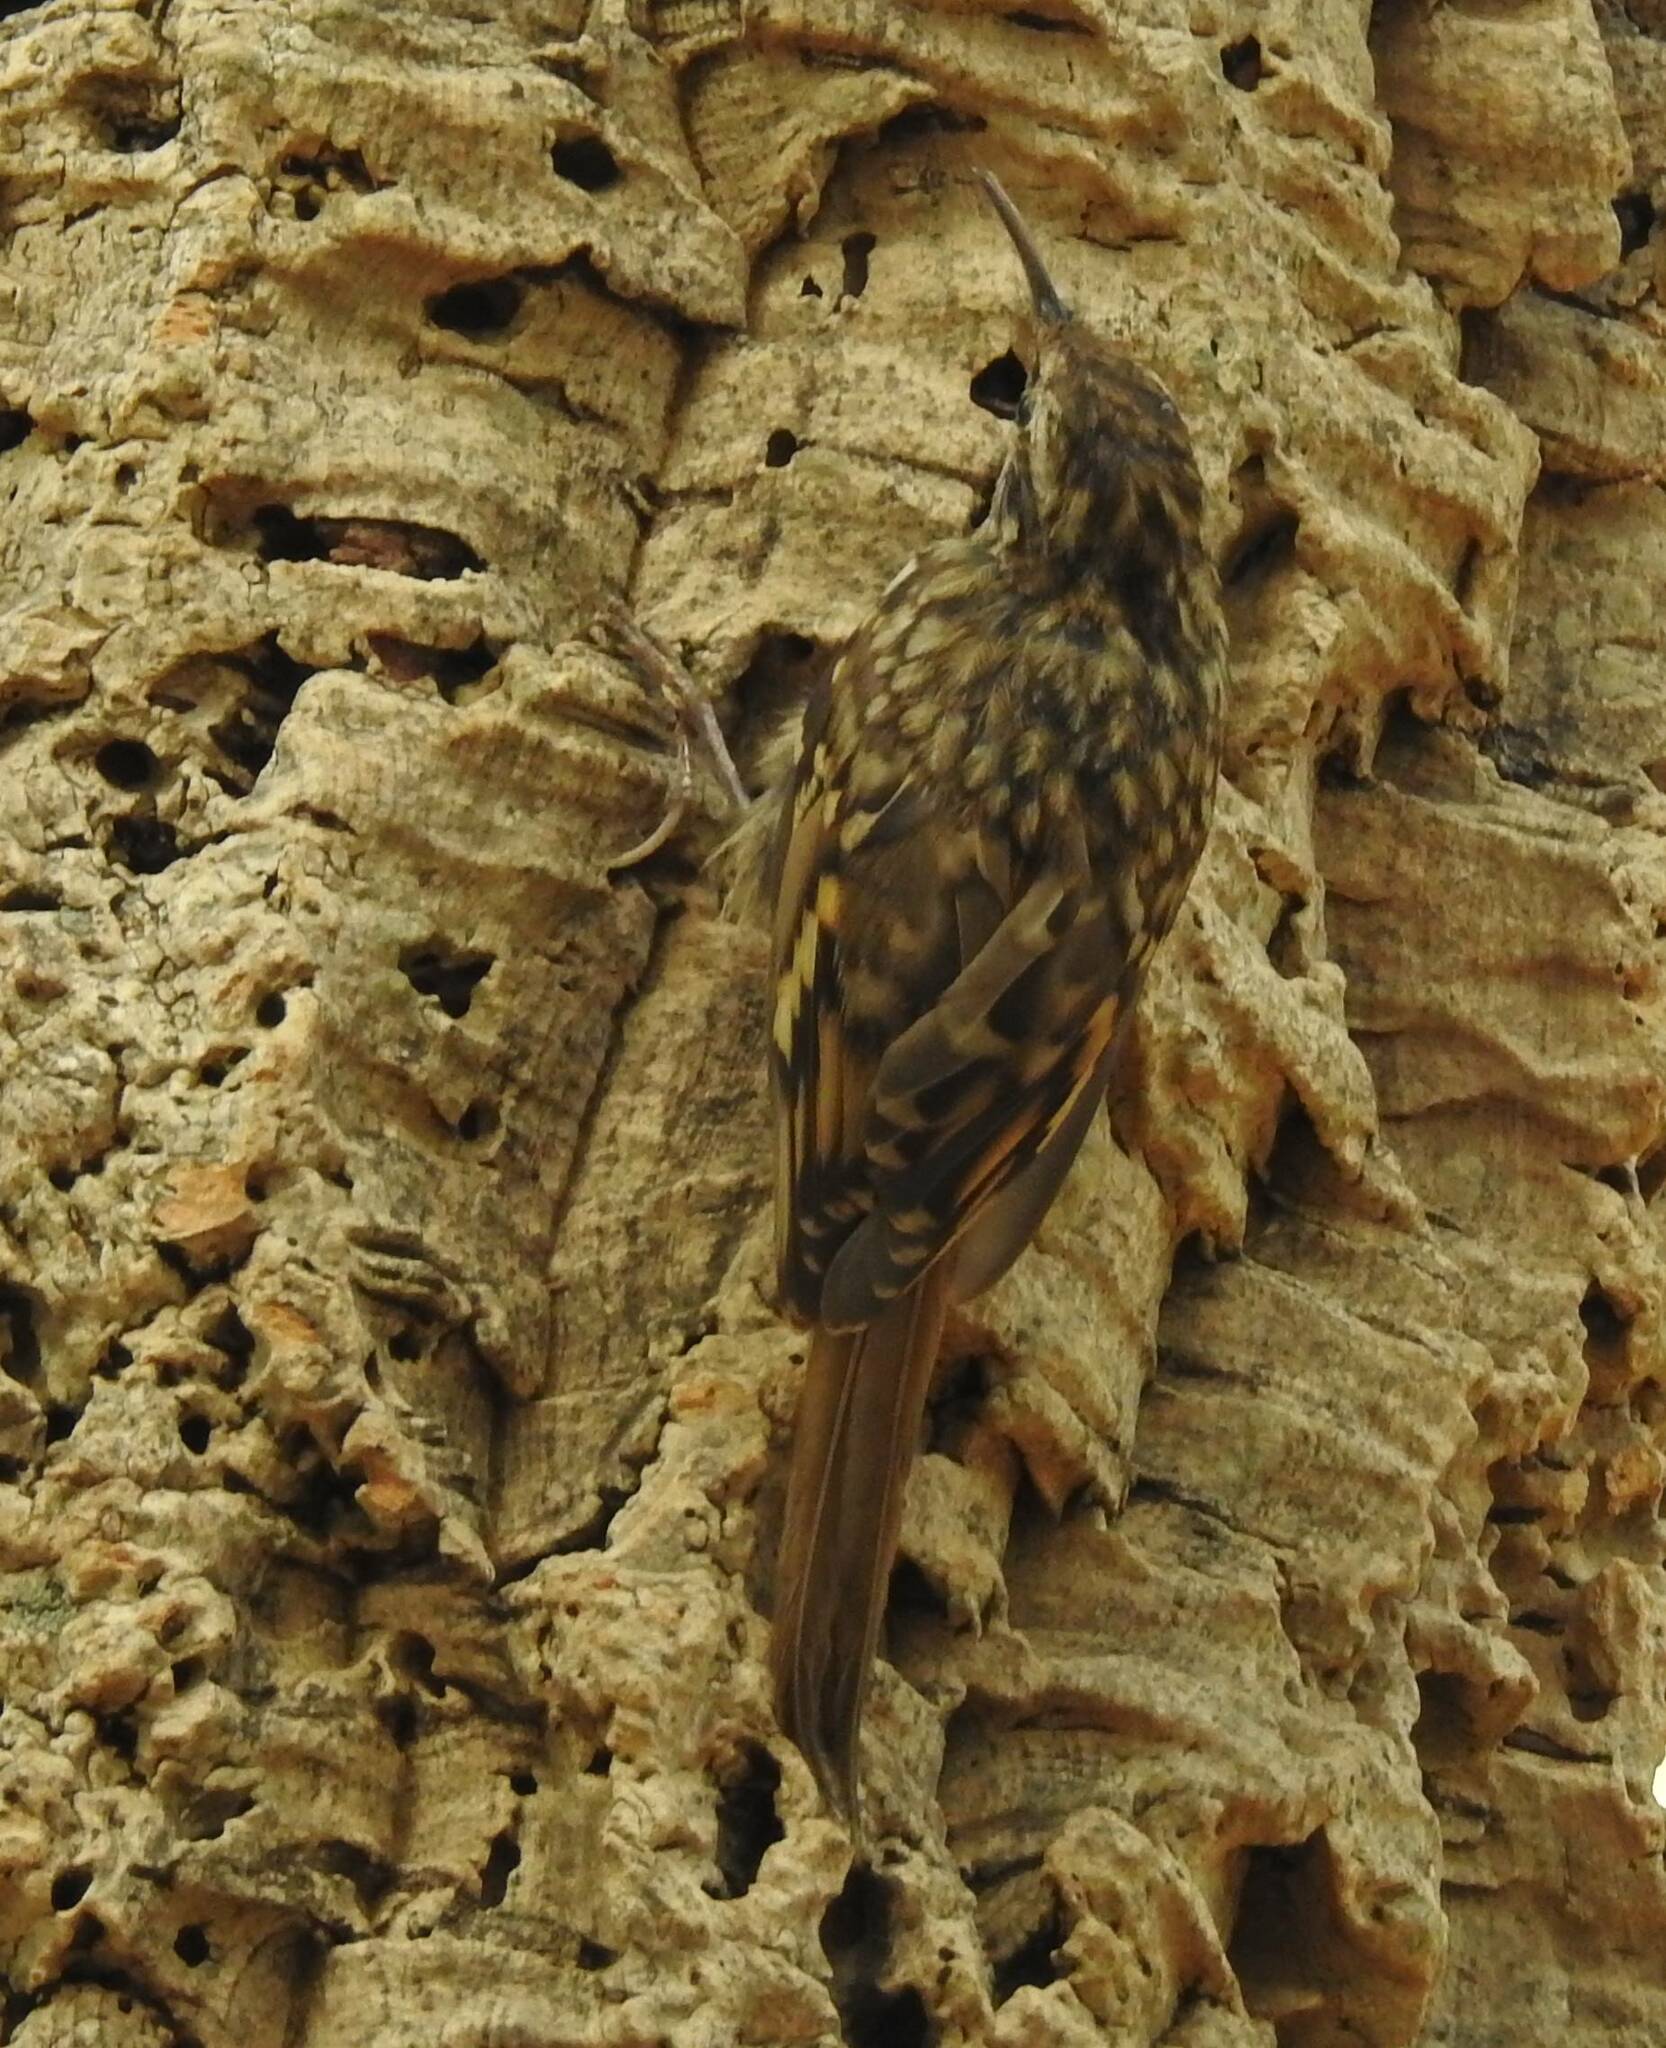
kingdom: Animalia
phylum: Chordata
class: Aves
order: Passeriformes
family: Certhiidae
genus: Certhia
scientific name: Certhia brachydactyla
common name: Short-toed treecreeper
